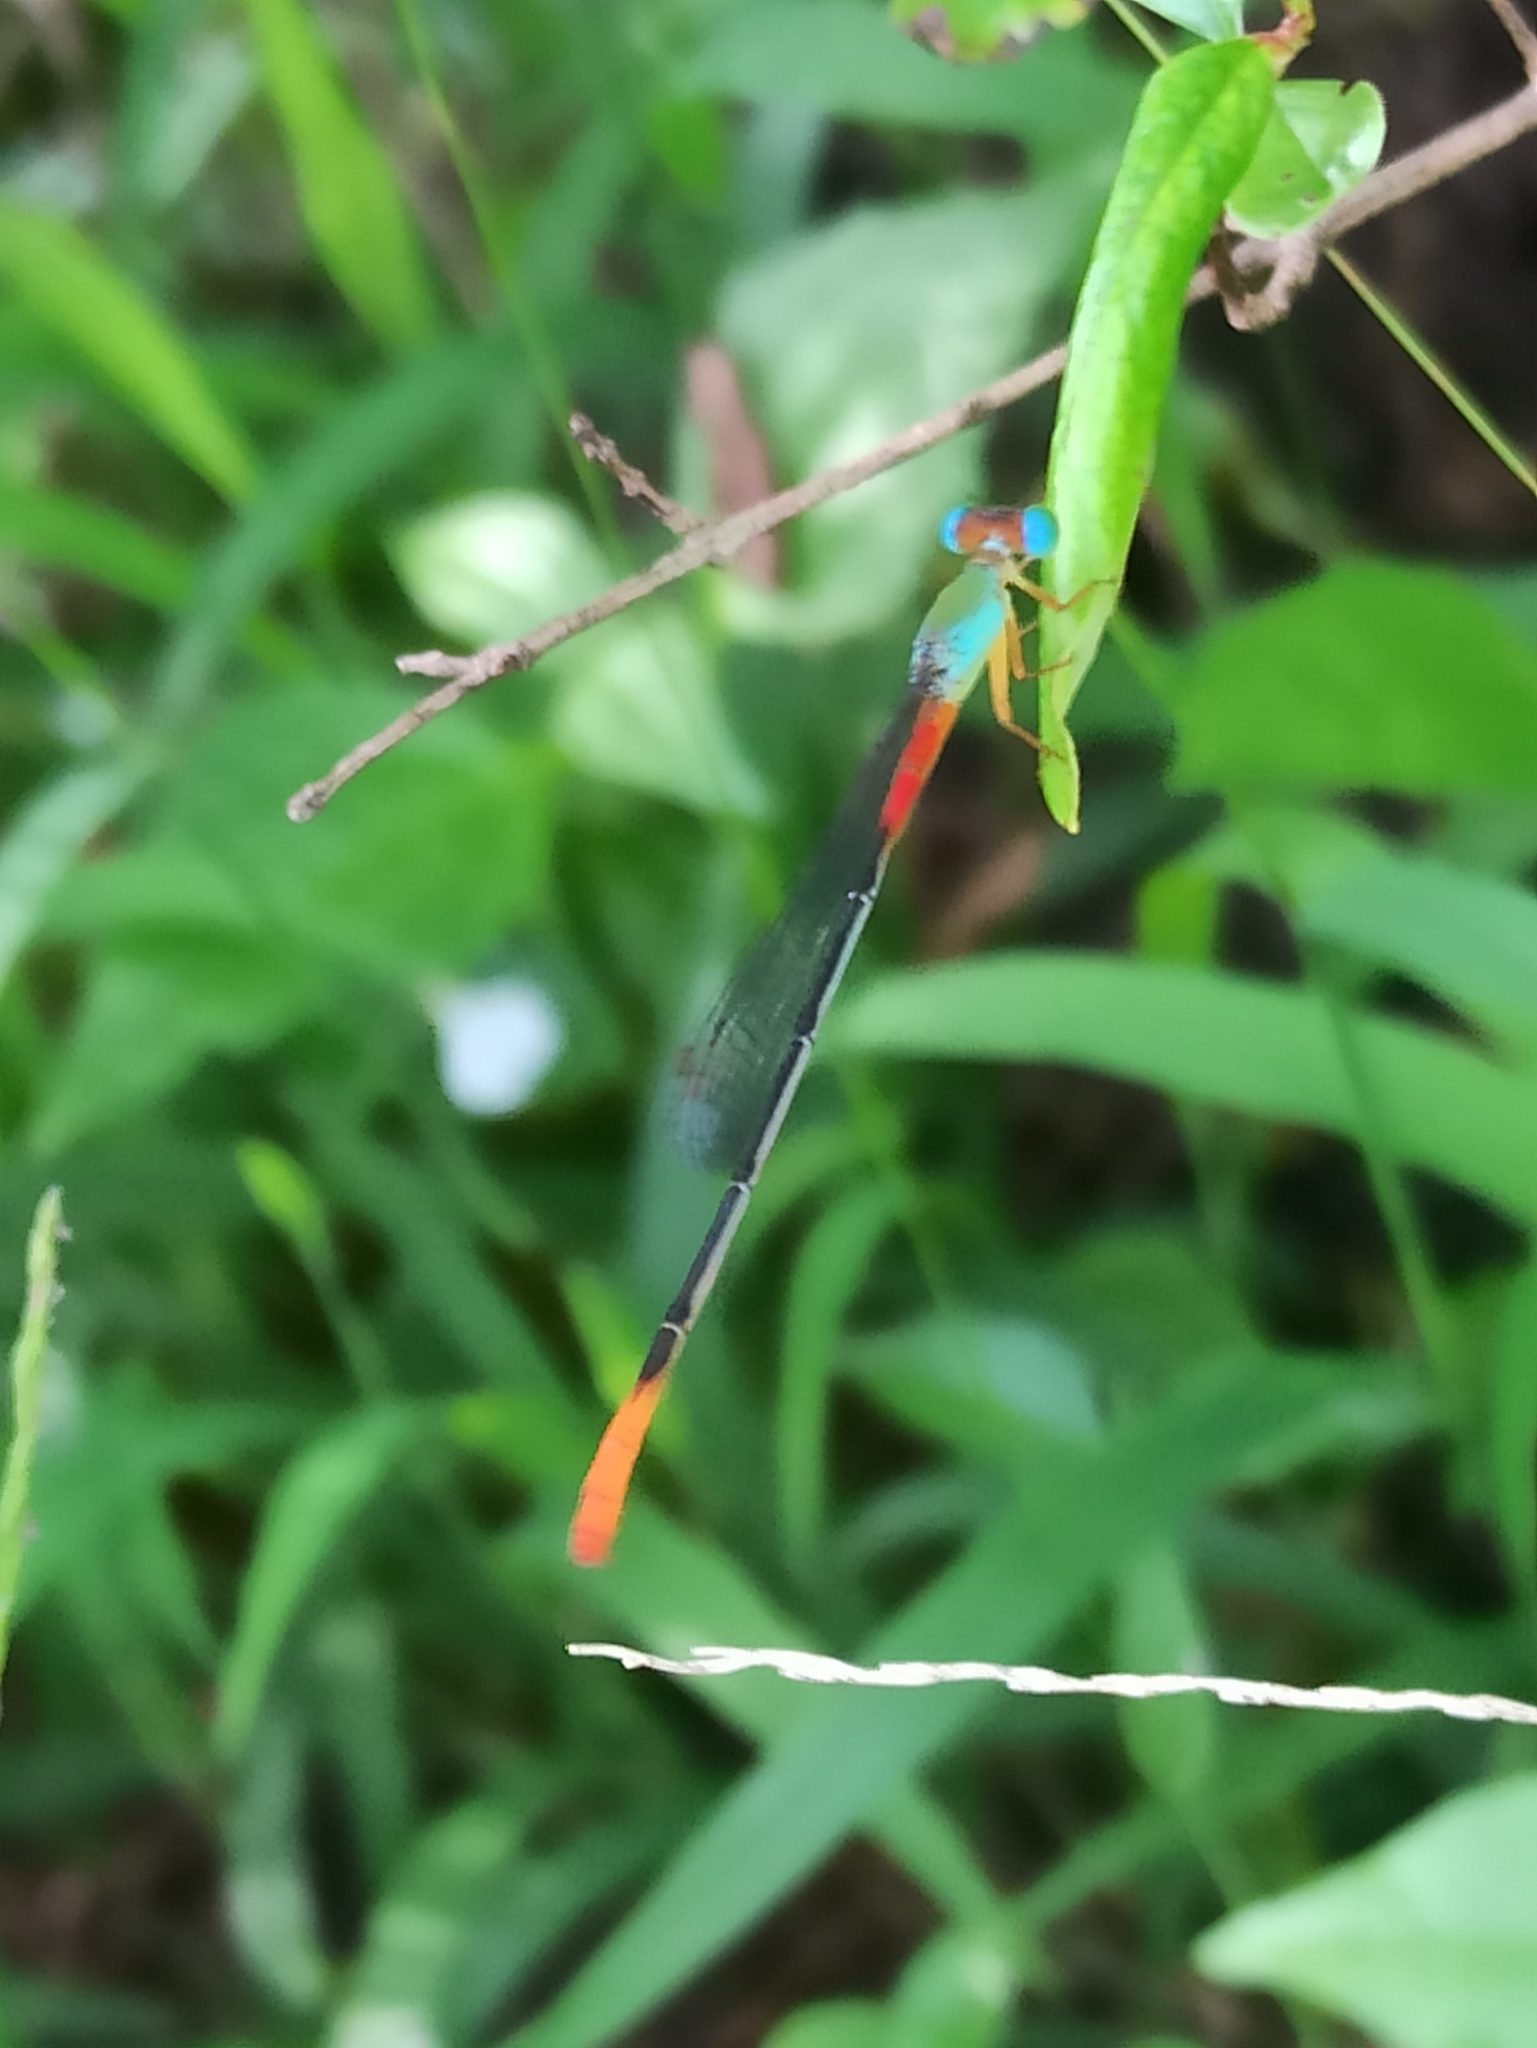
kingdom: Animalia
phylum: Arthropoda
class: Insecta
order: Odonata
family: Coenagrionidae
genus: Ceriagrion
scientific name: Ceriagrion cerinorubellum
